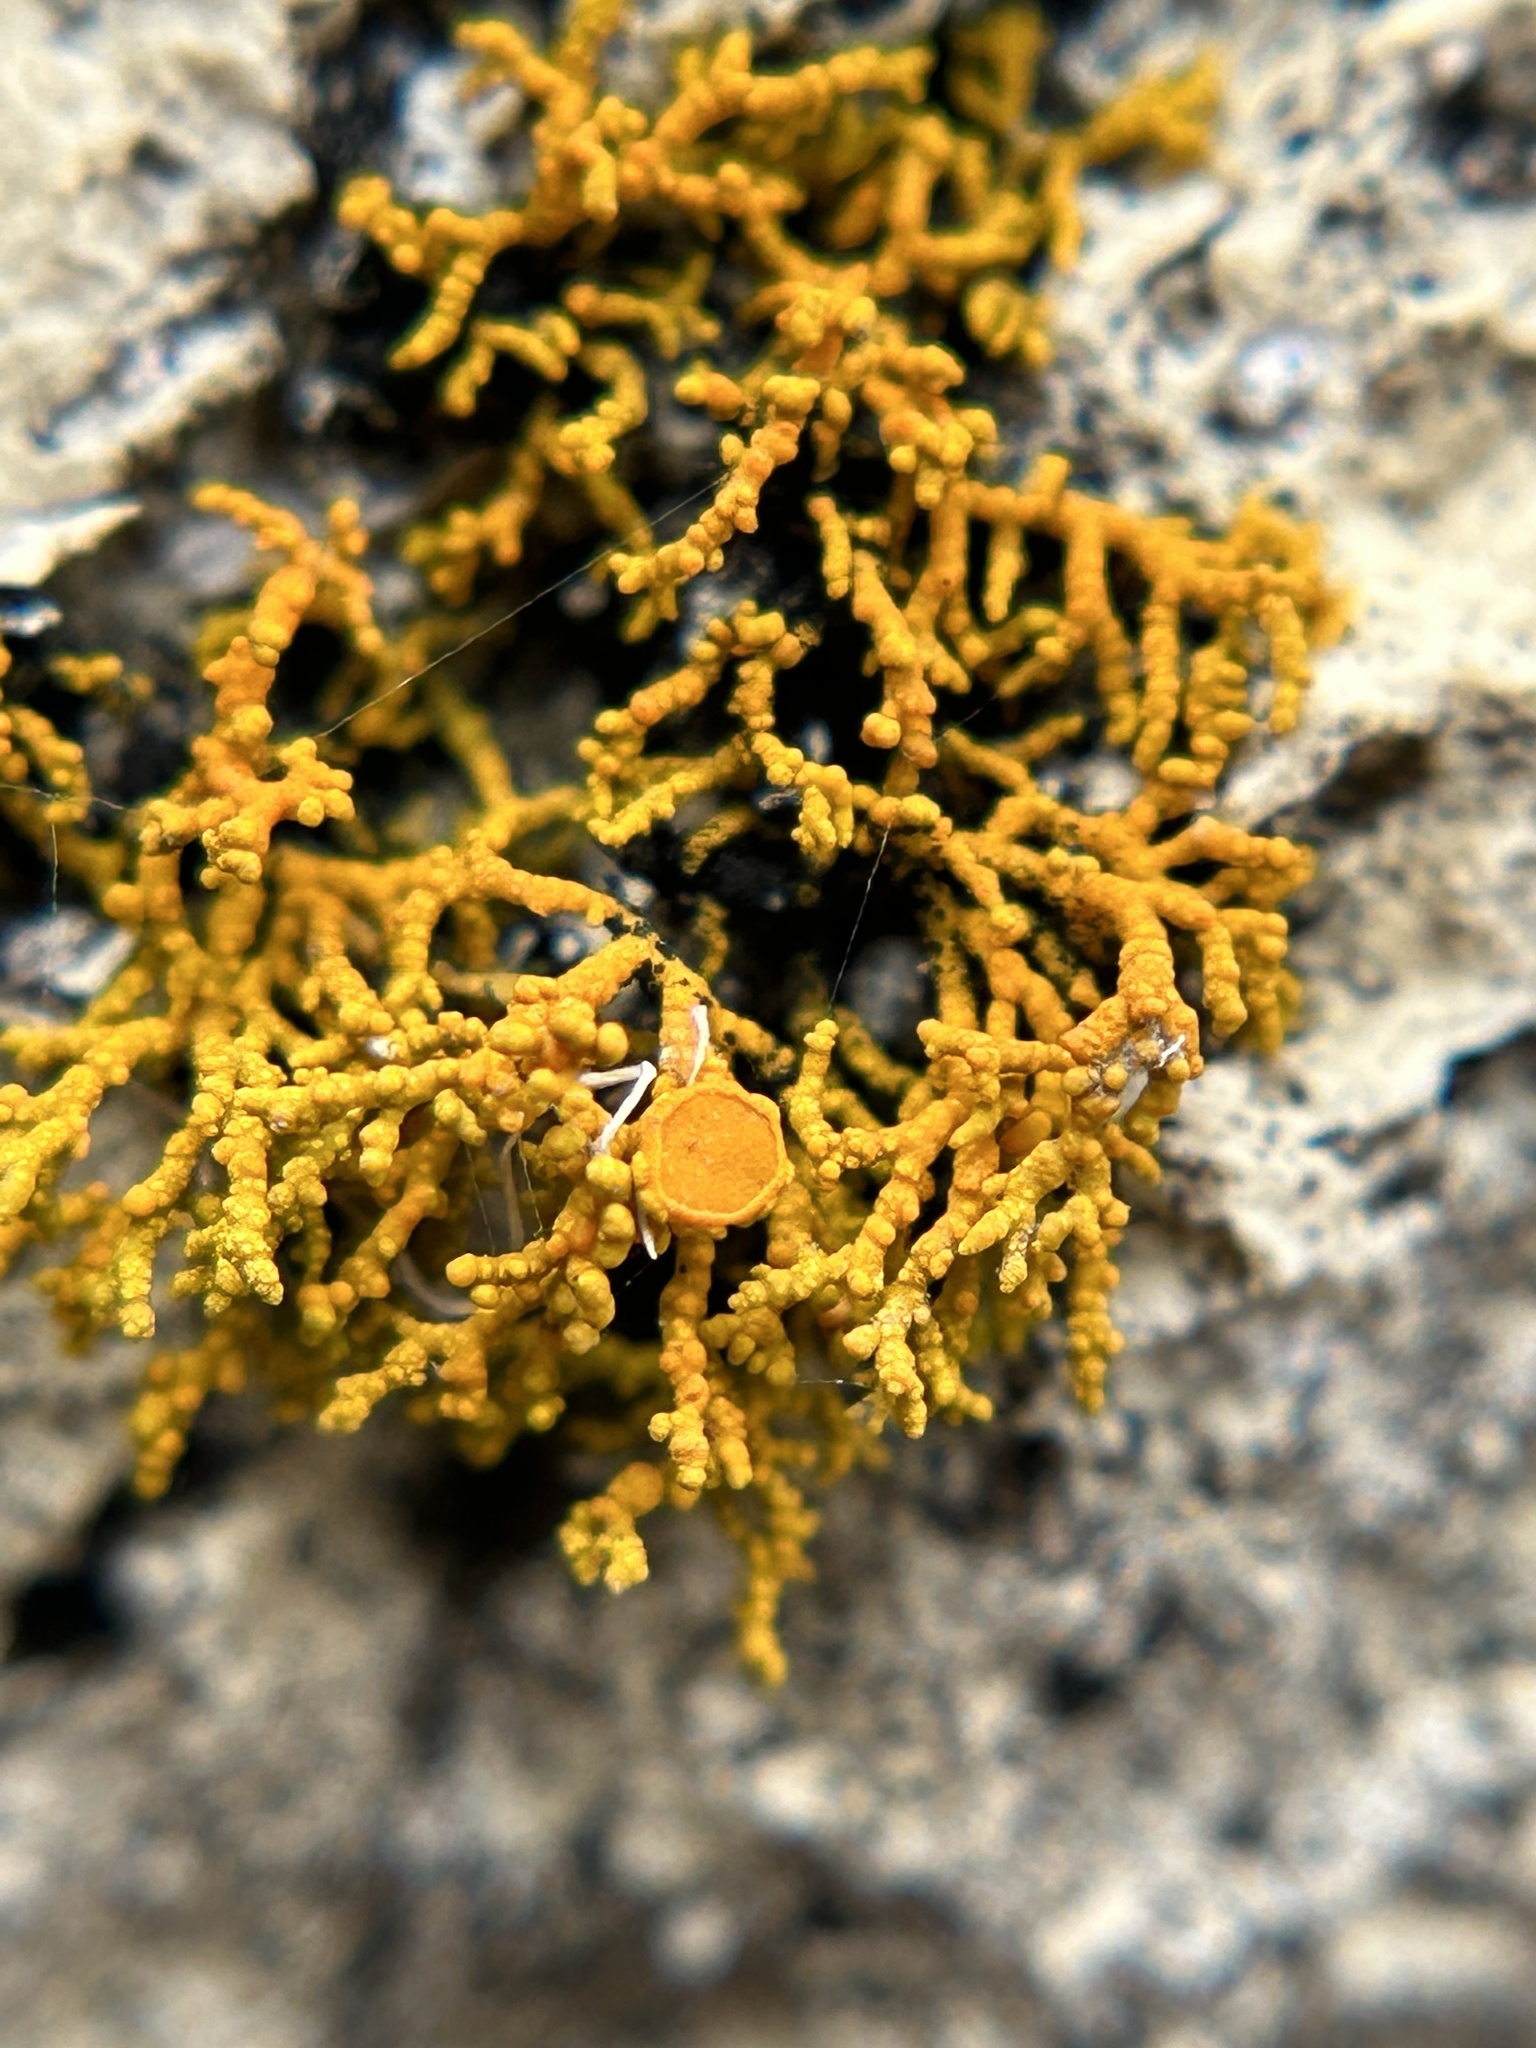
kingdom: Fungi
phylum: Ascomycota
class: Lecanoromycetes
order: Teloschistales
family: Teloschistaceae
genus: Polycauliona
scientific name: Polycauliona coralloides
